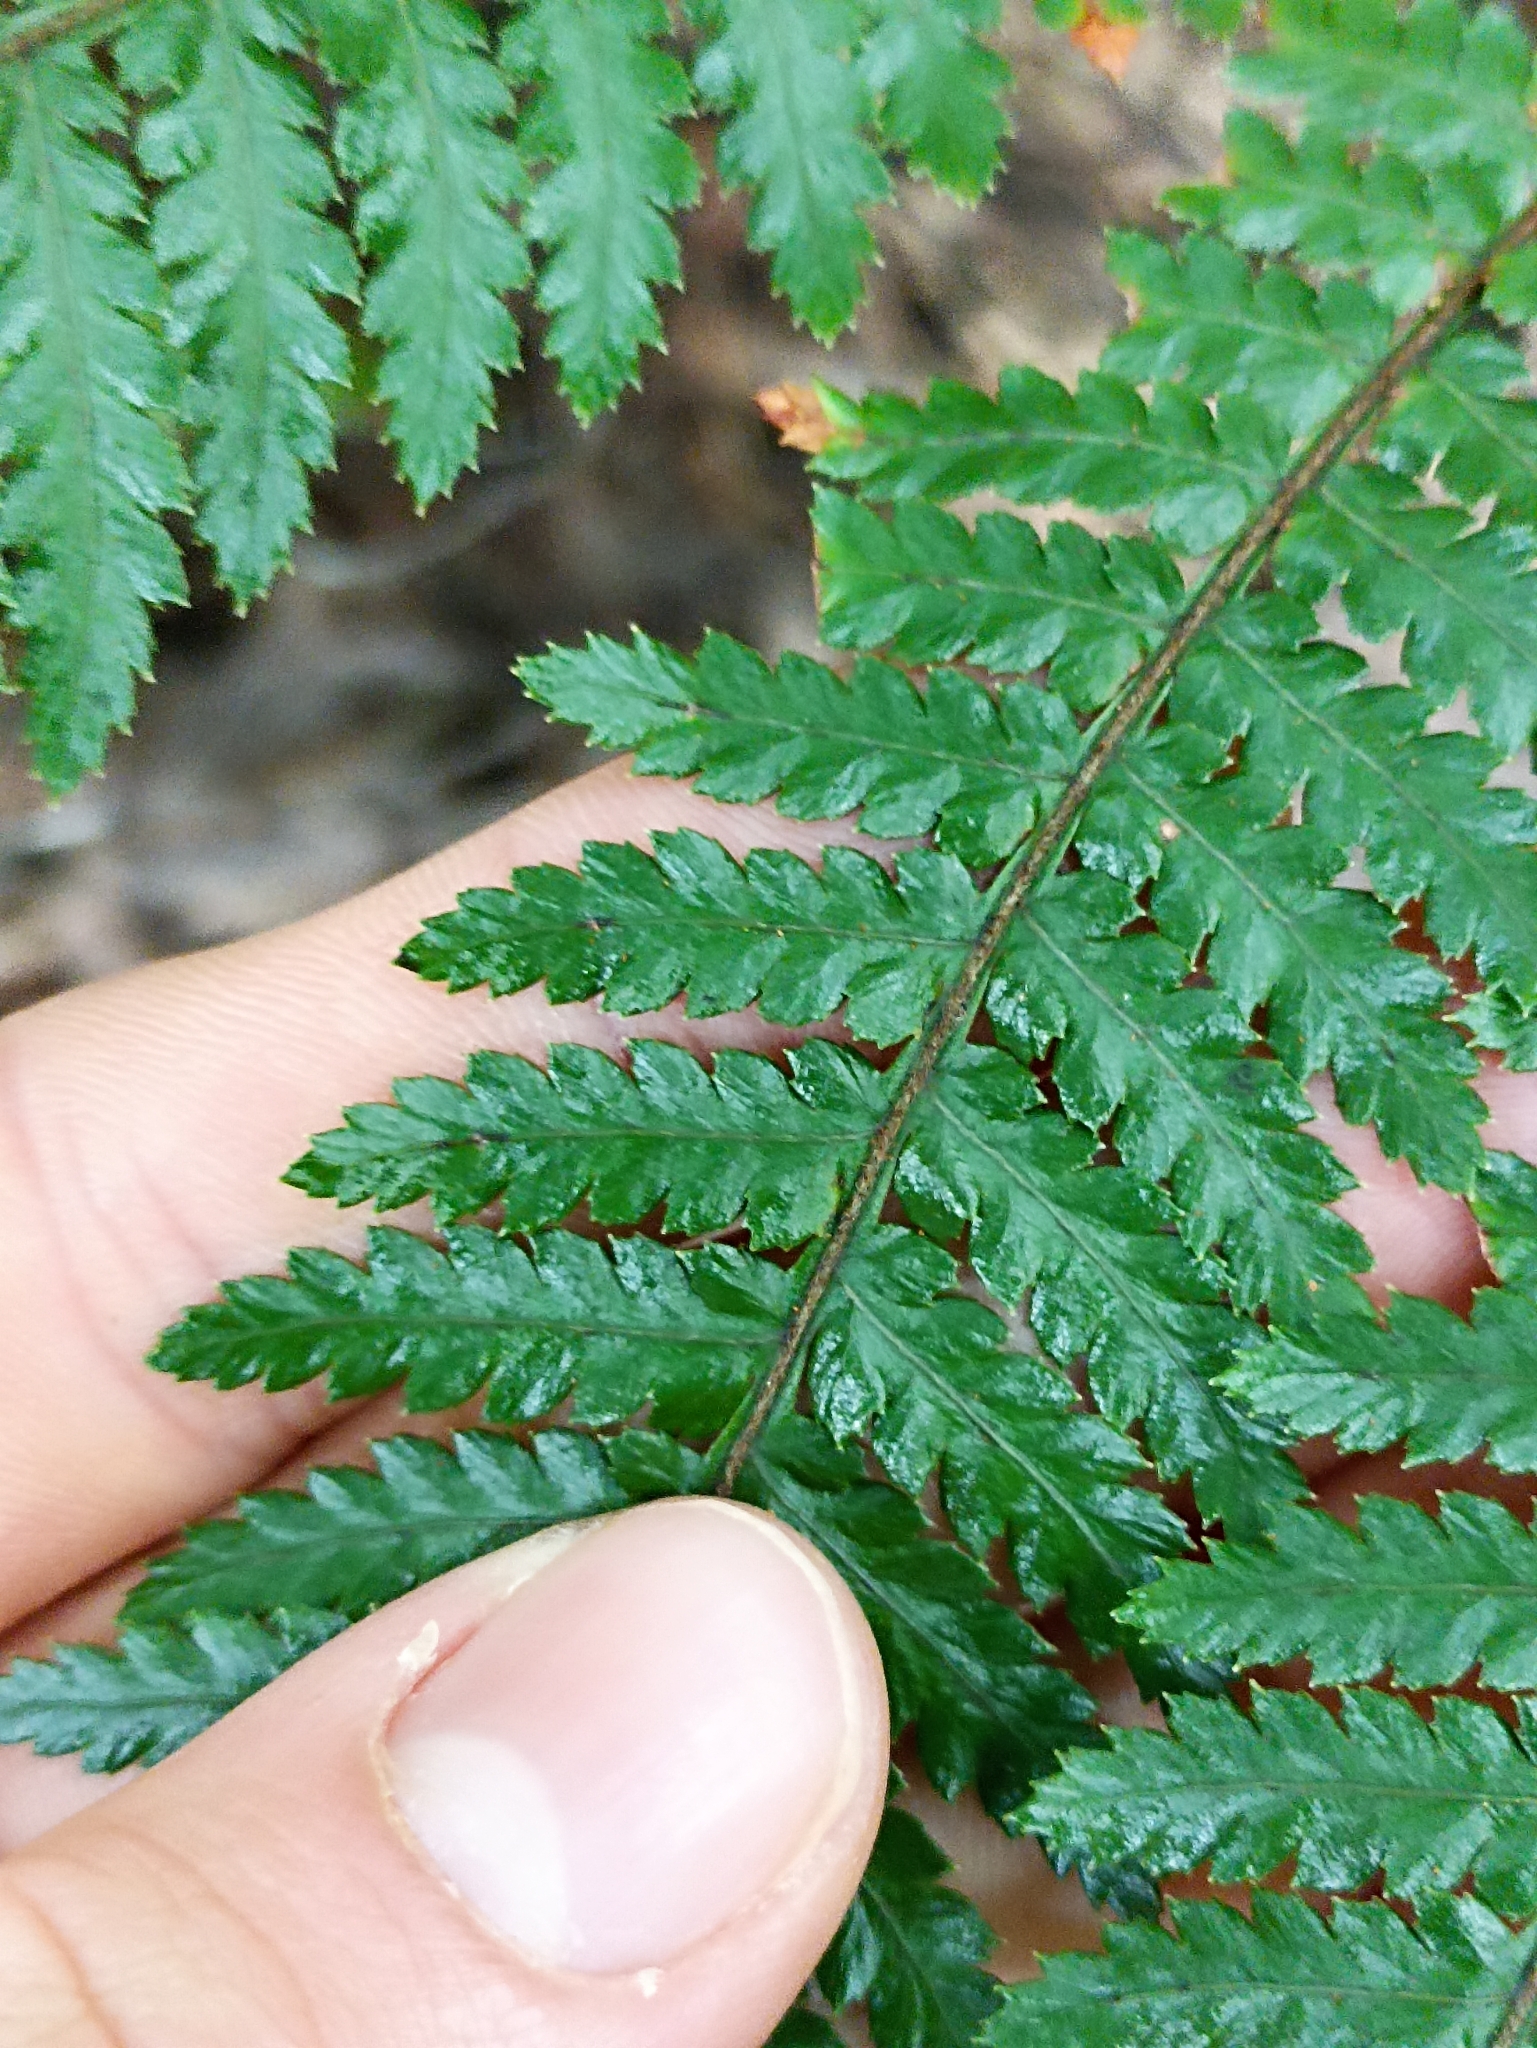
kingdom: Plantae
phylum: Tracheophyta
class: Polypodiopsida
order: Cyatheales
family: Dicksoniaceae
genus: Dicksonia
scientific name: Dicksonia squarrosa
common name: Hard treefern
